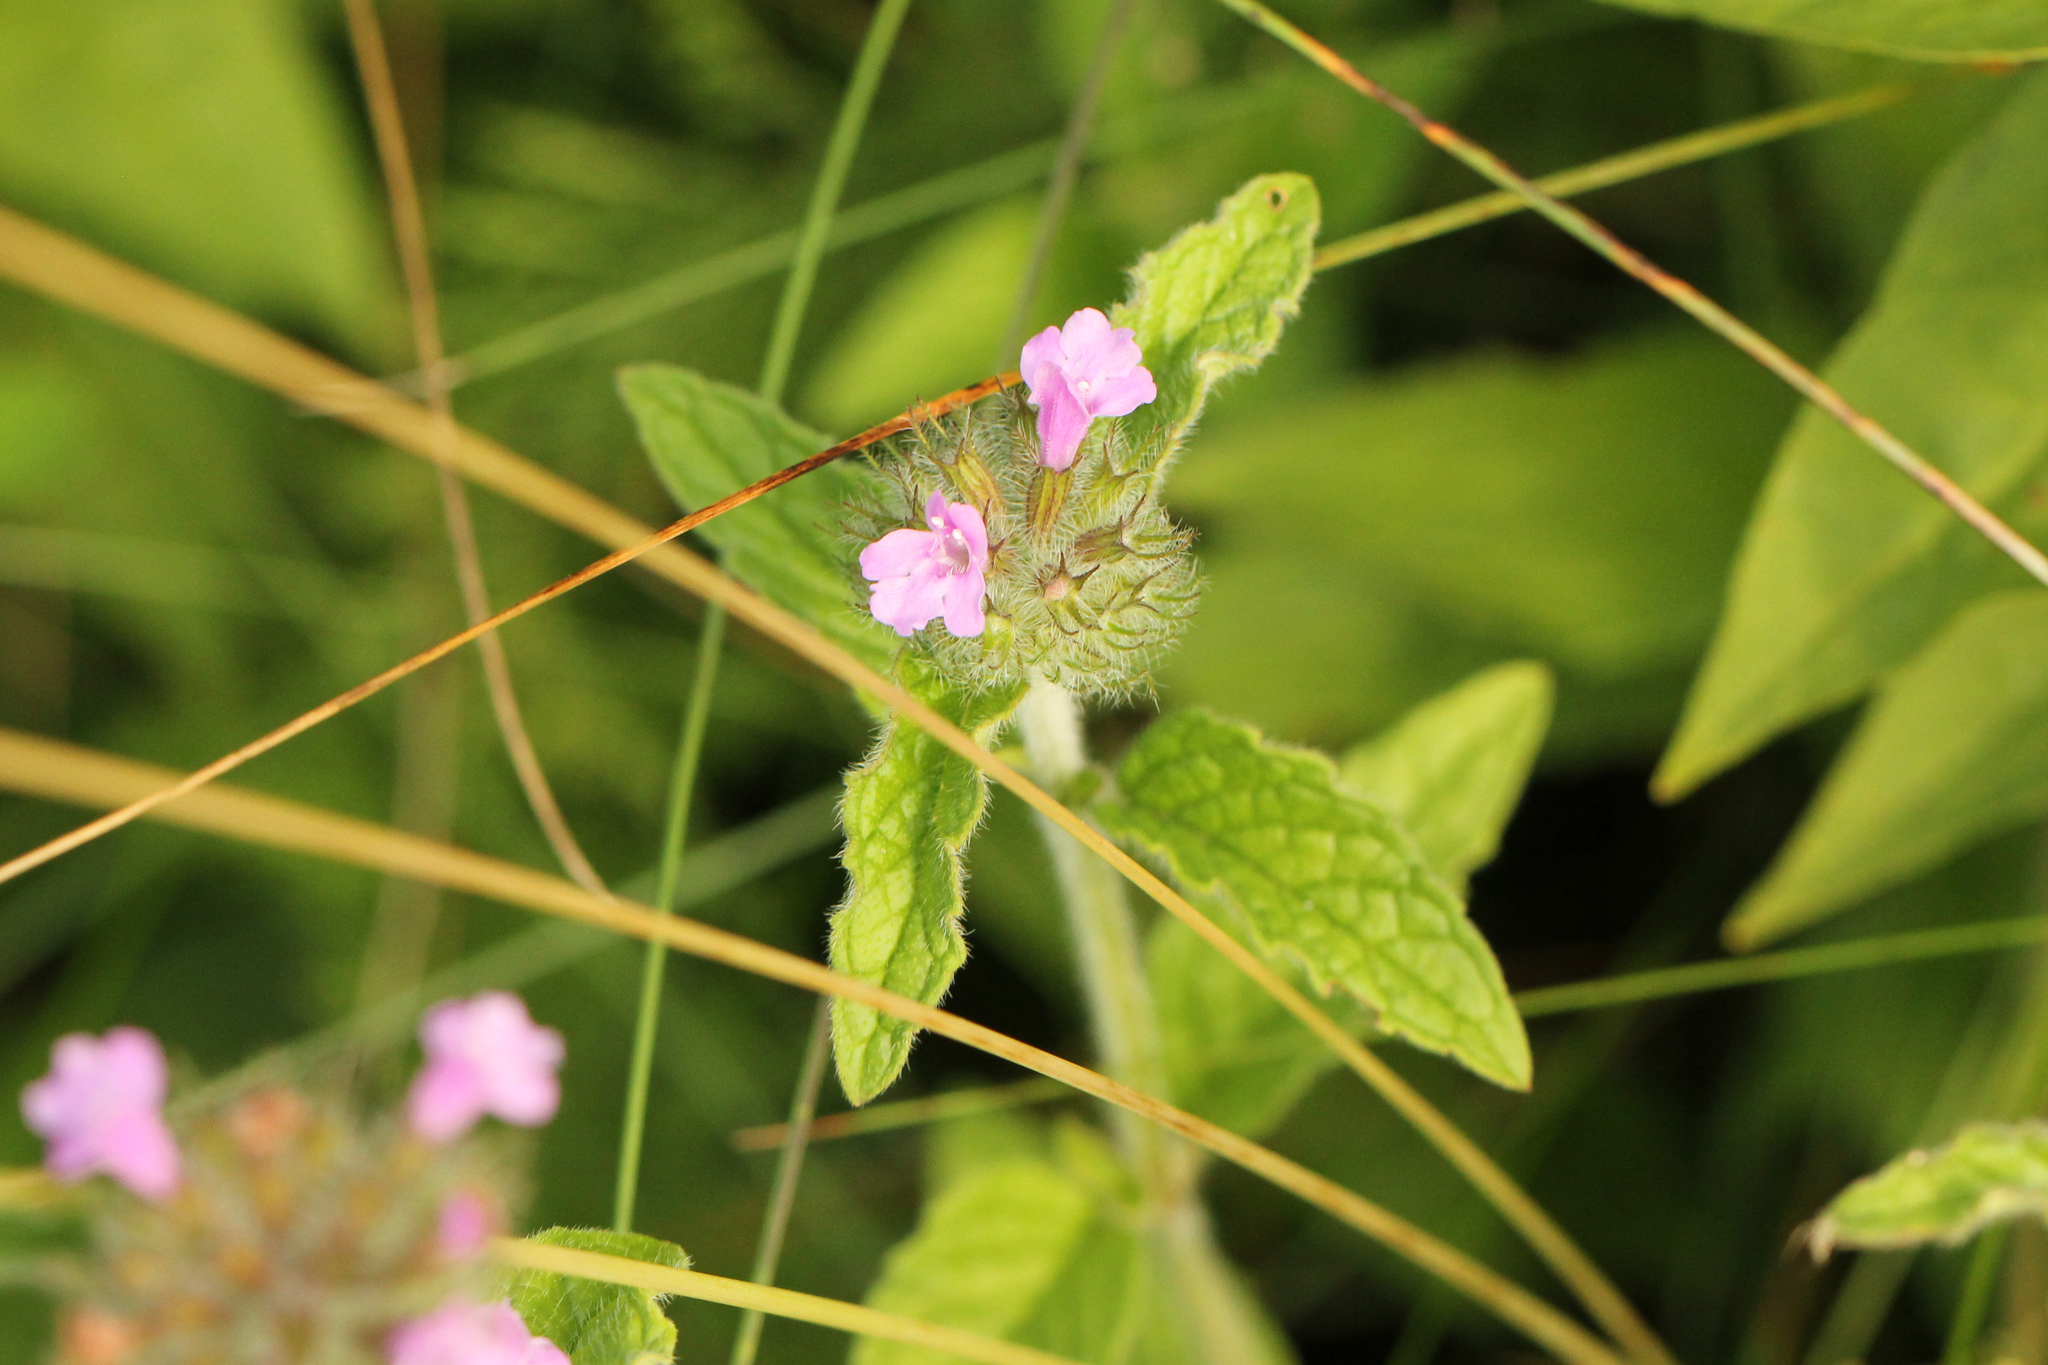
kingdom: Plantae
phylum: Tracheophyta
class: Magnoliopsida
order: Lamiales
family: Lamiaceae
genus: Clinopodium
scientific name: Clinopodium vulgare
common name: Wild basil
